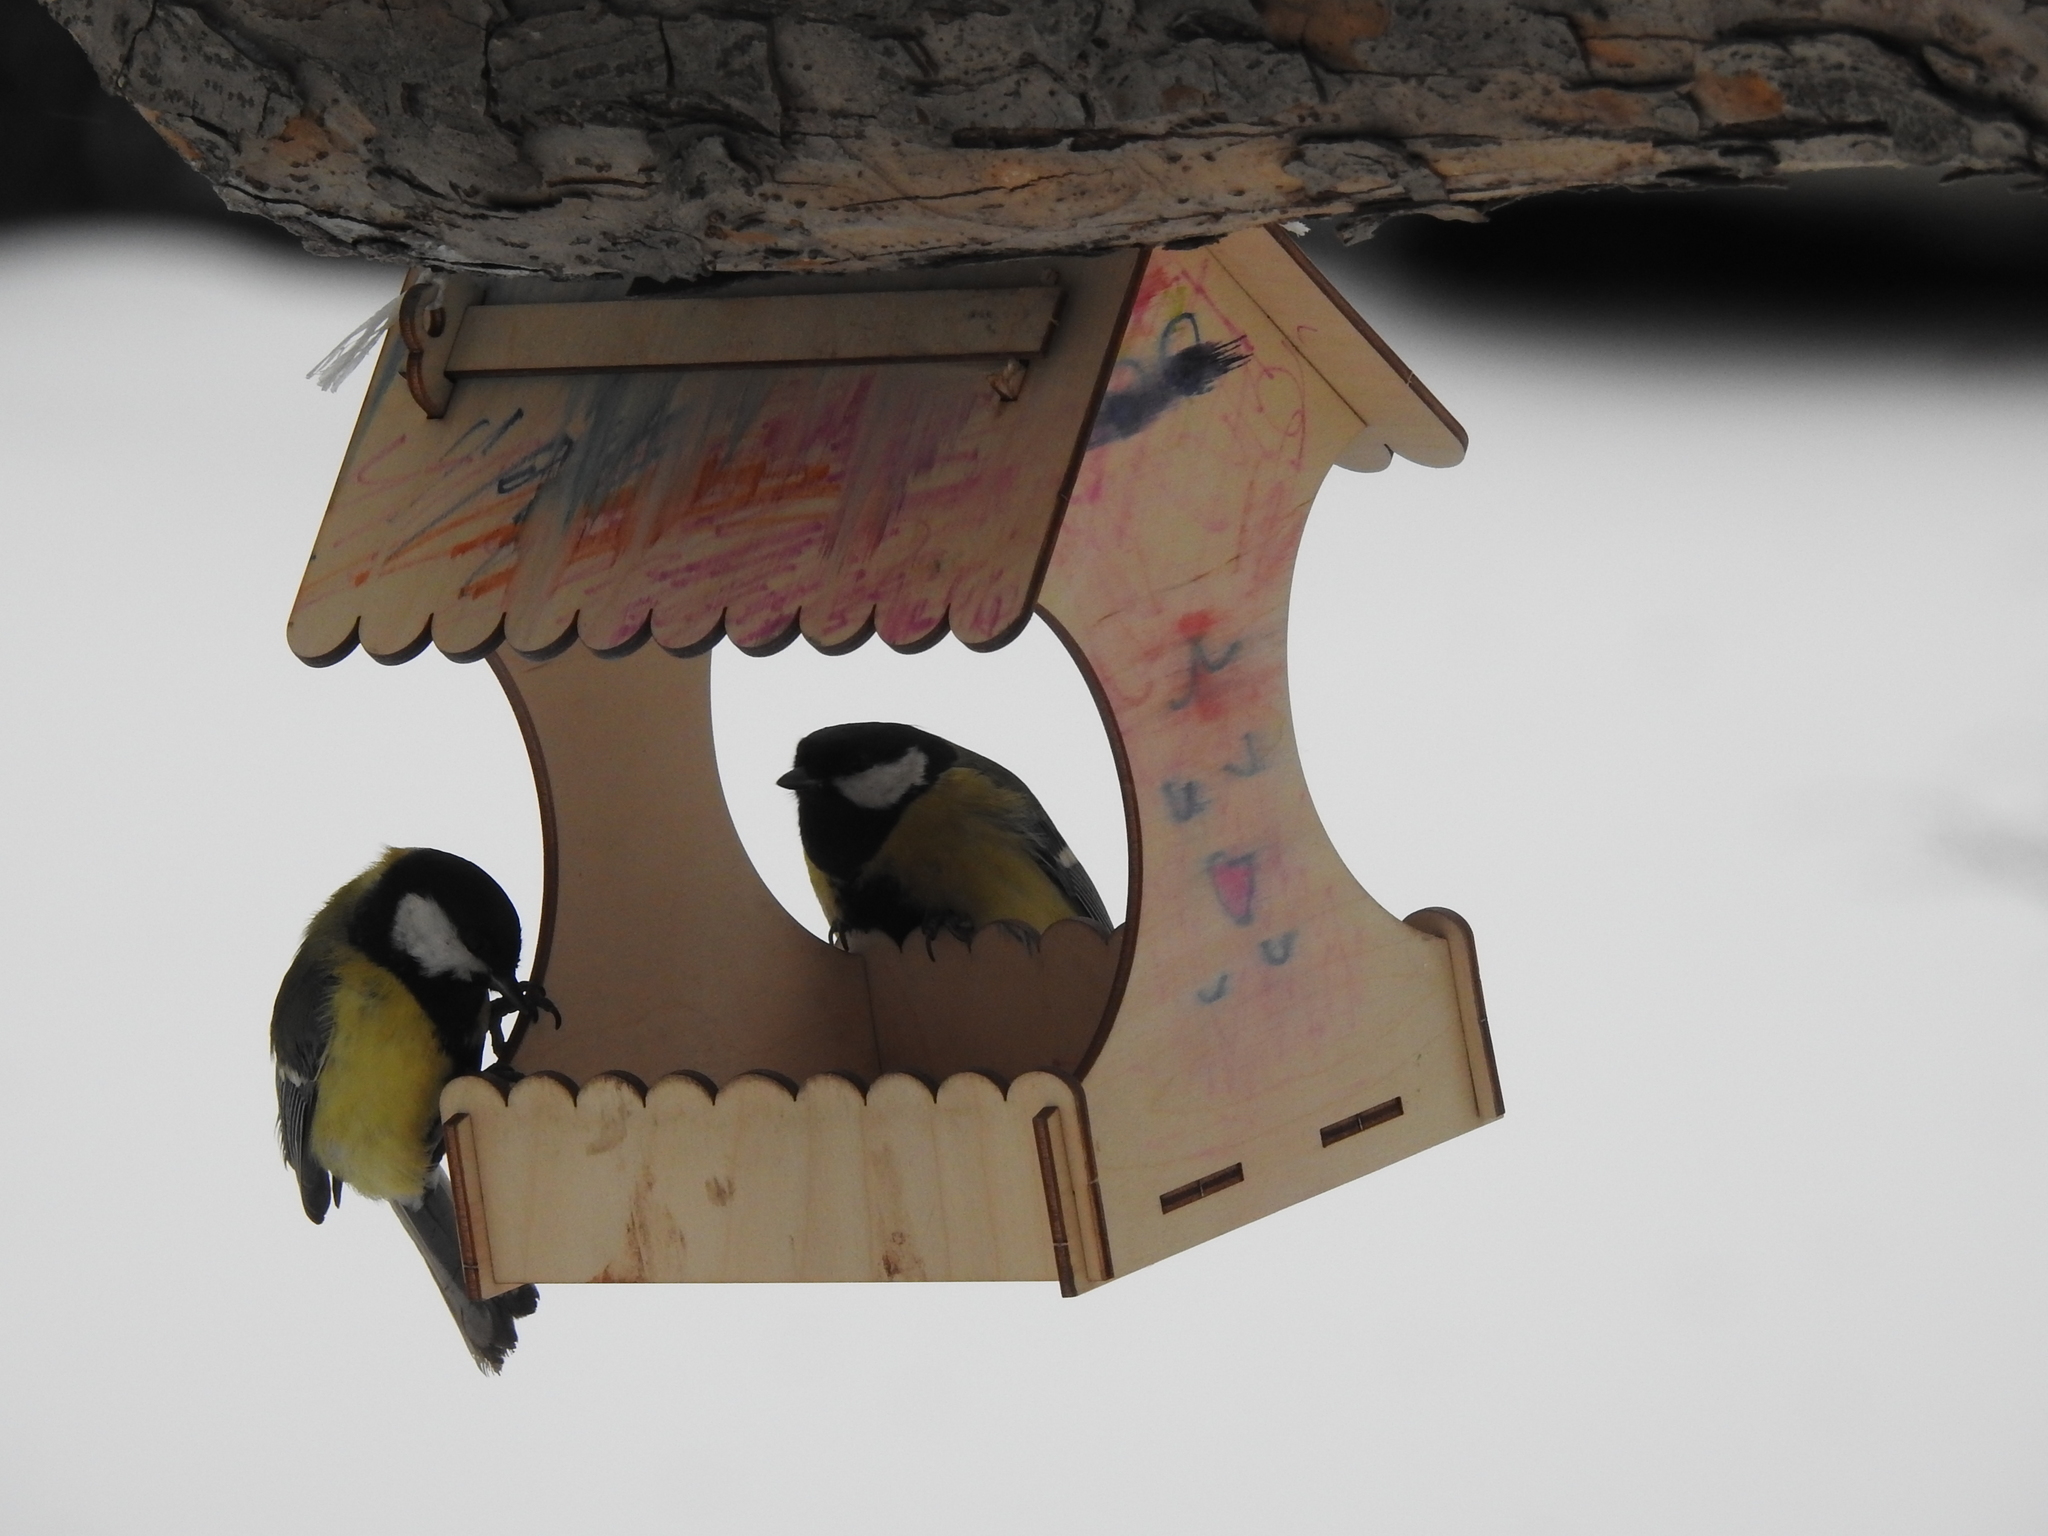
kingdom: Animalia
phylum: Chordata
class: Aves
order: Passeriformes
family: Paridae
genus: Parus
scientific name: Parus major
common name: Great tit
